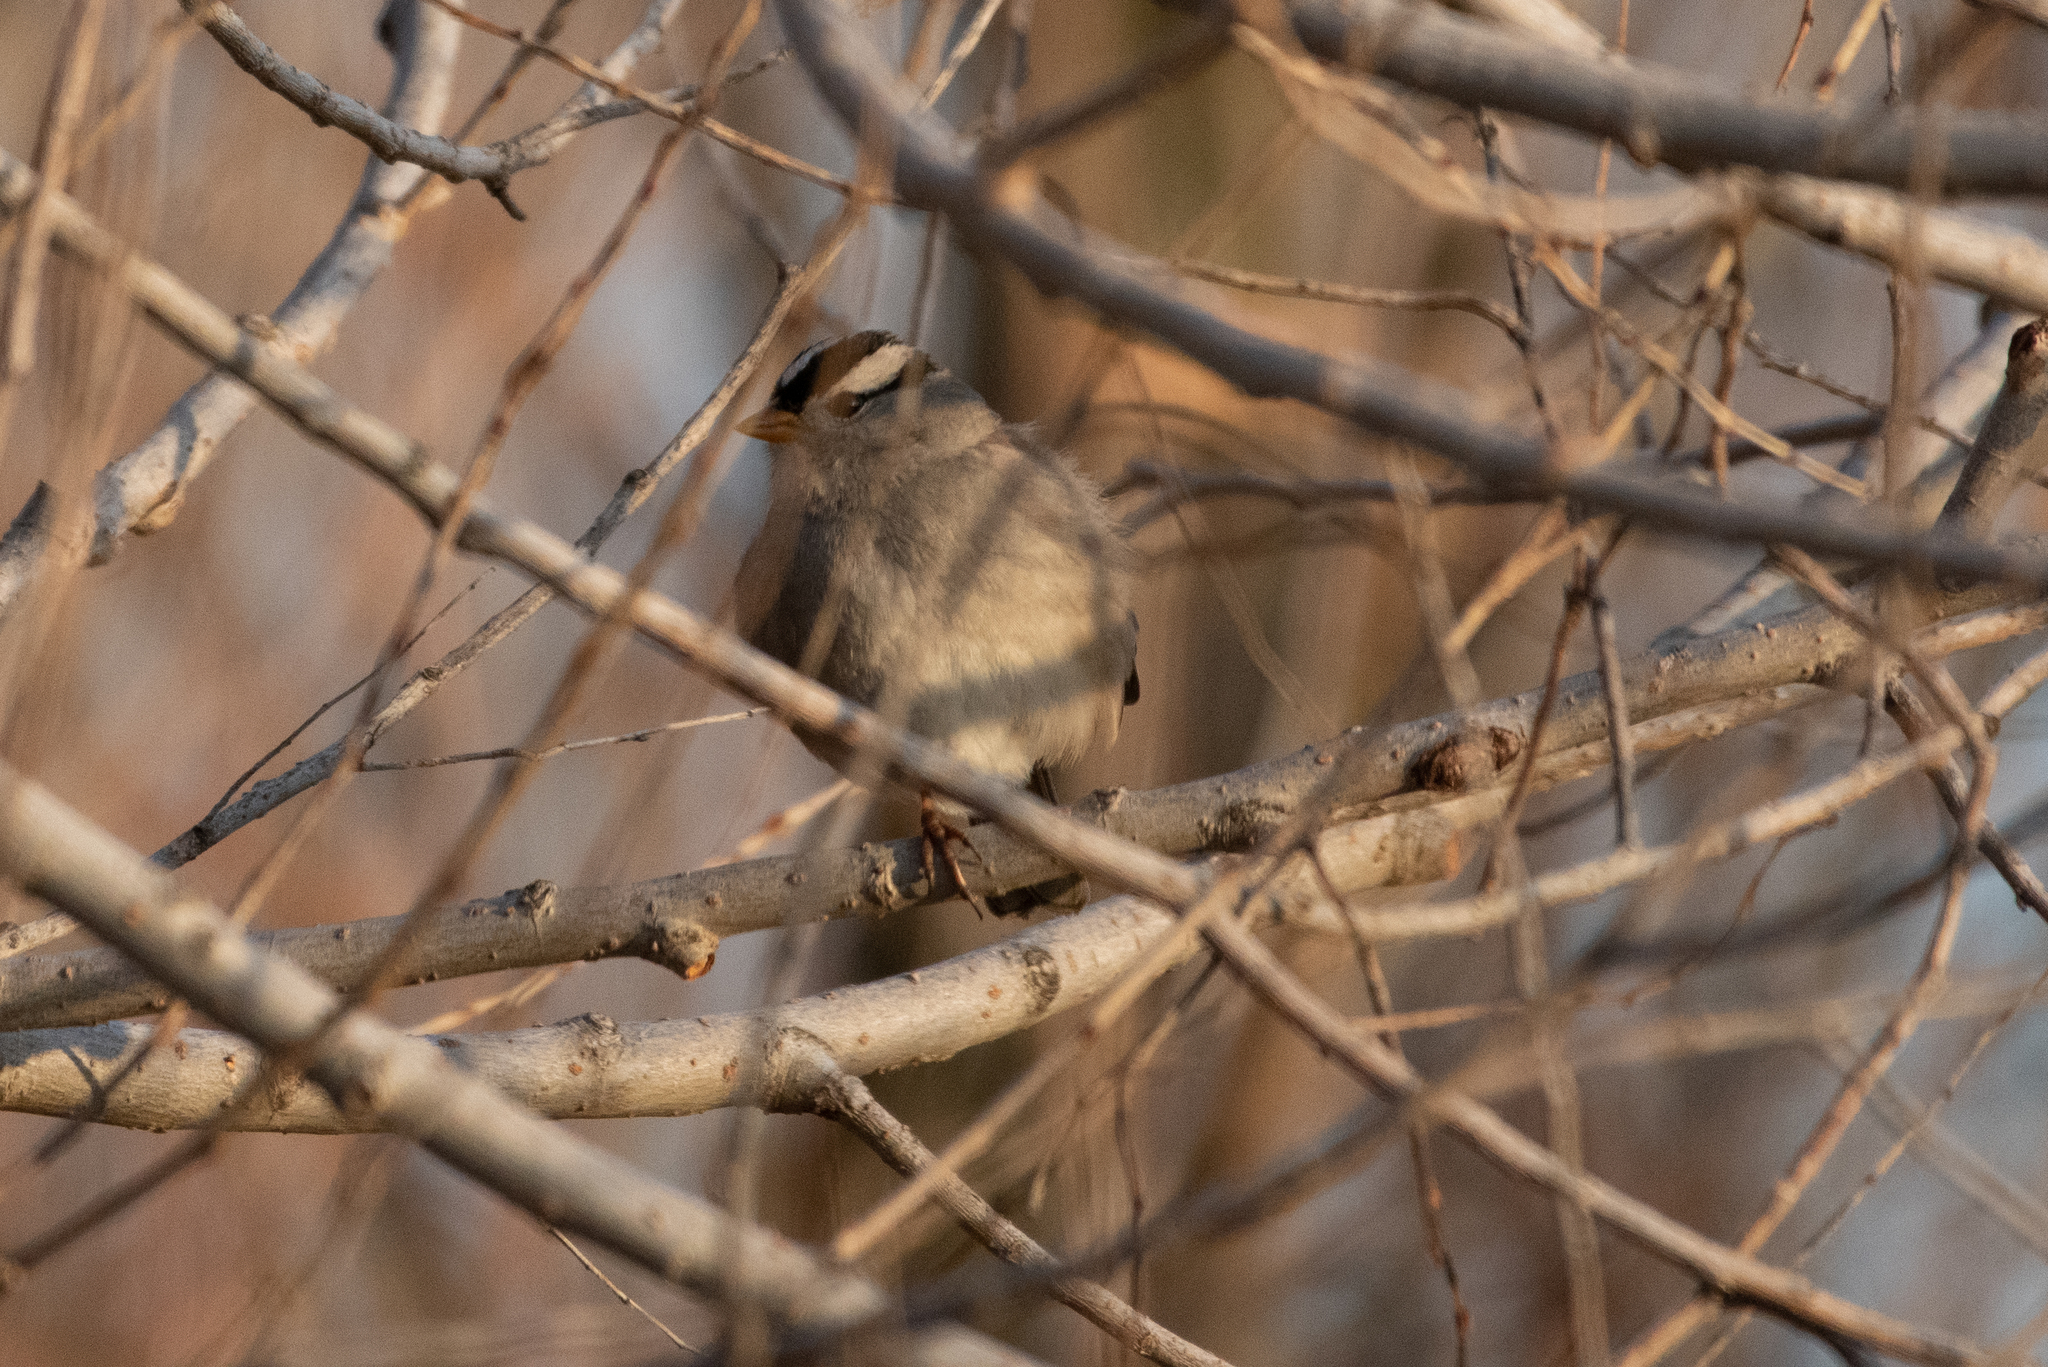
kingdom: Animalia
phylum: Chordata
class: Aves
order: Passeriformes
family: Passerellidae
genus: Zonotrichia
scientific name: Zonotrichia leucophrys
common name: White-crowned sparrow
